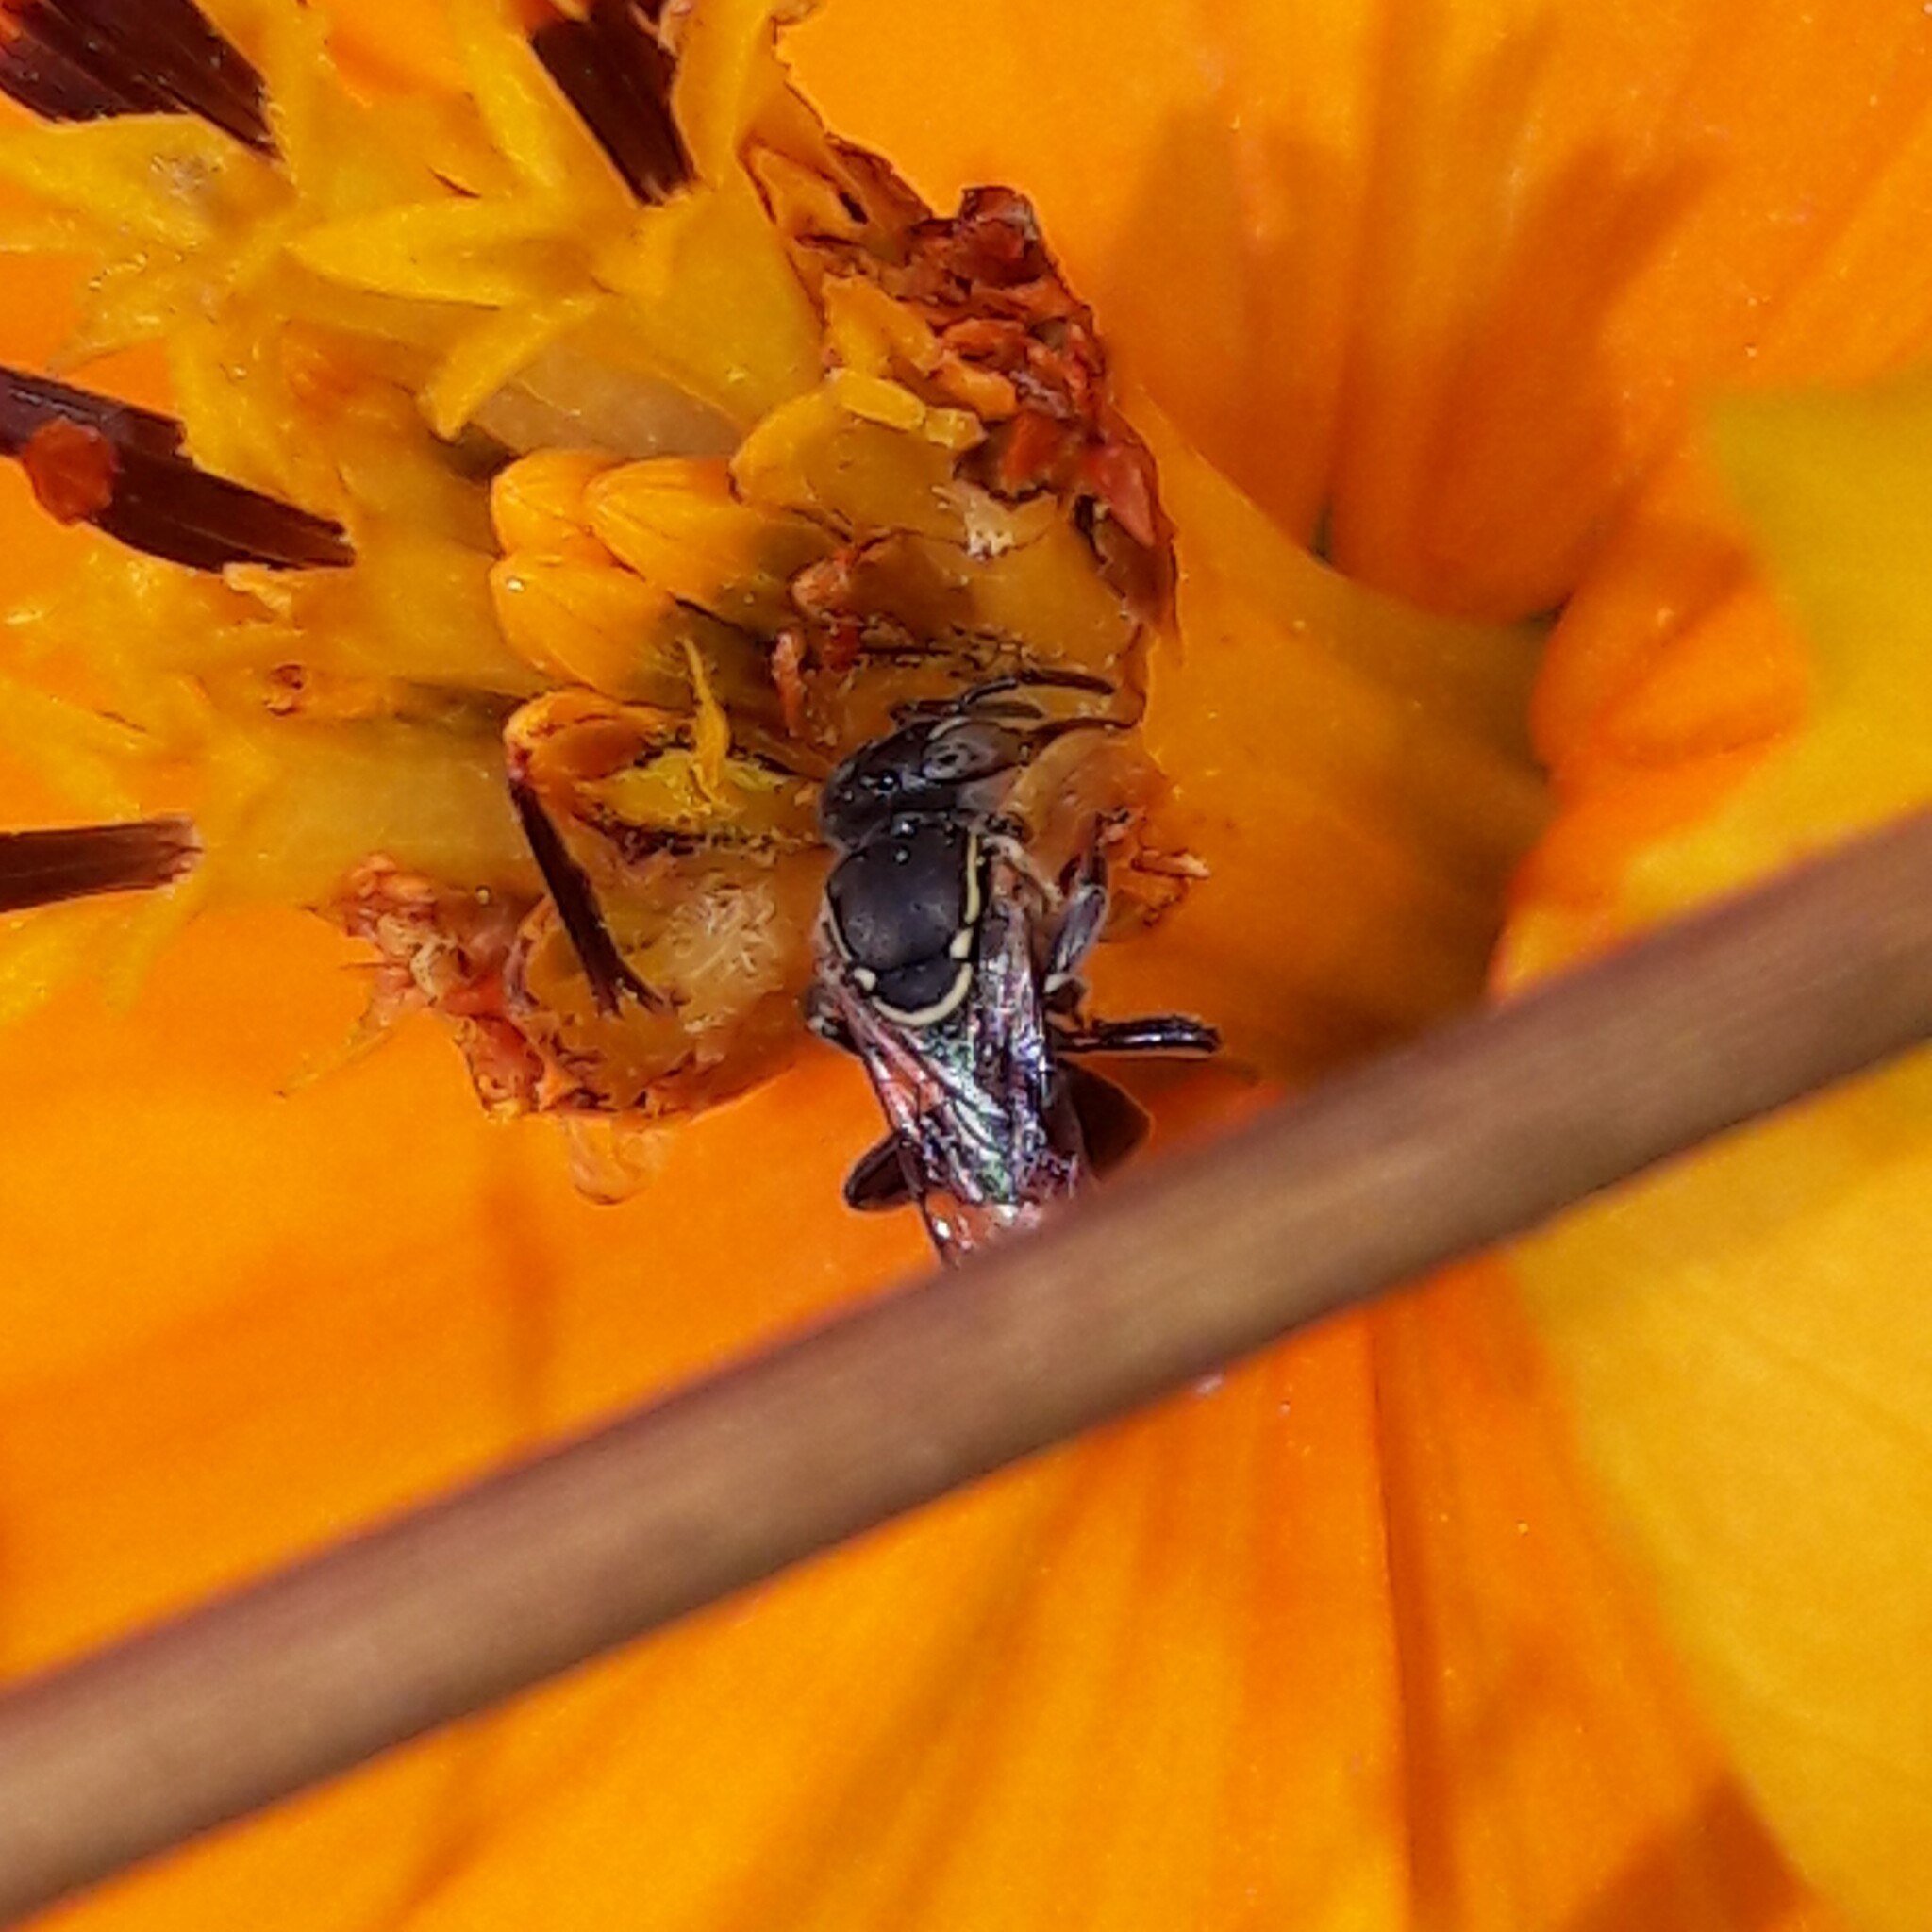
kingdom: Animalia
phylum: Arthropoda
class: Insecta
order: Hymenoptera
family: Apidae
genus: Paratrigona
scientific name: Paratrigona lineata
